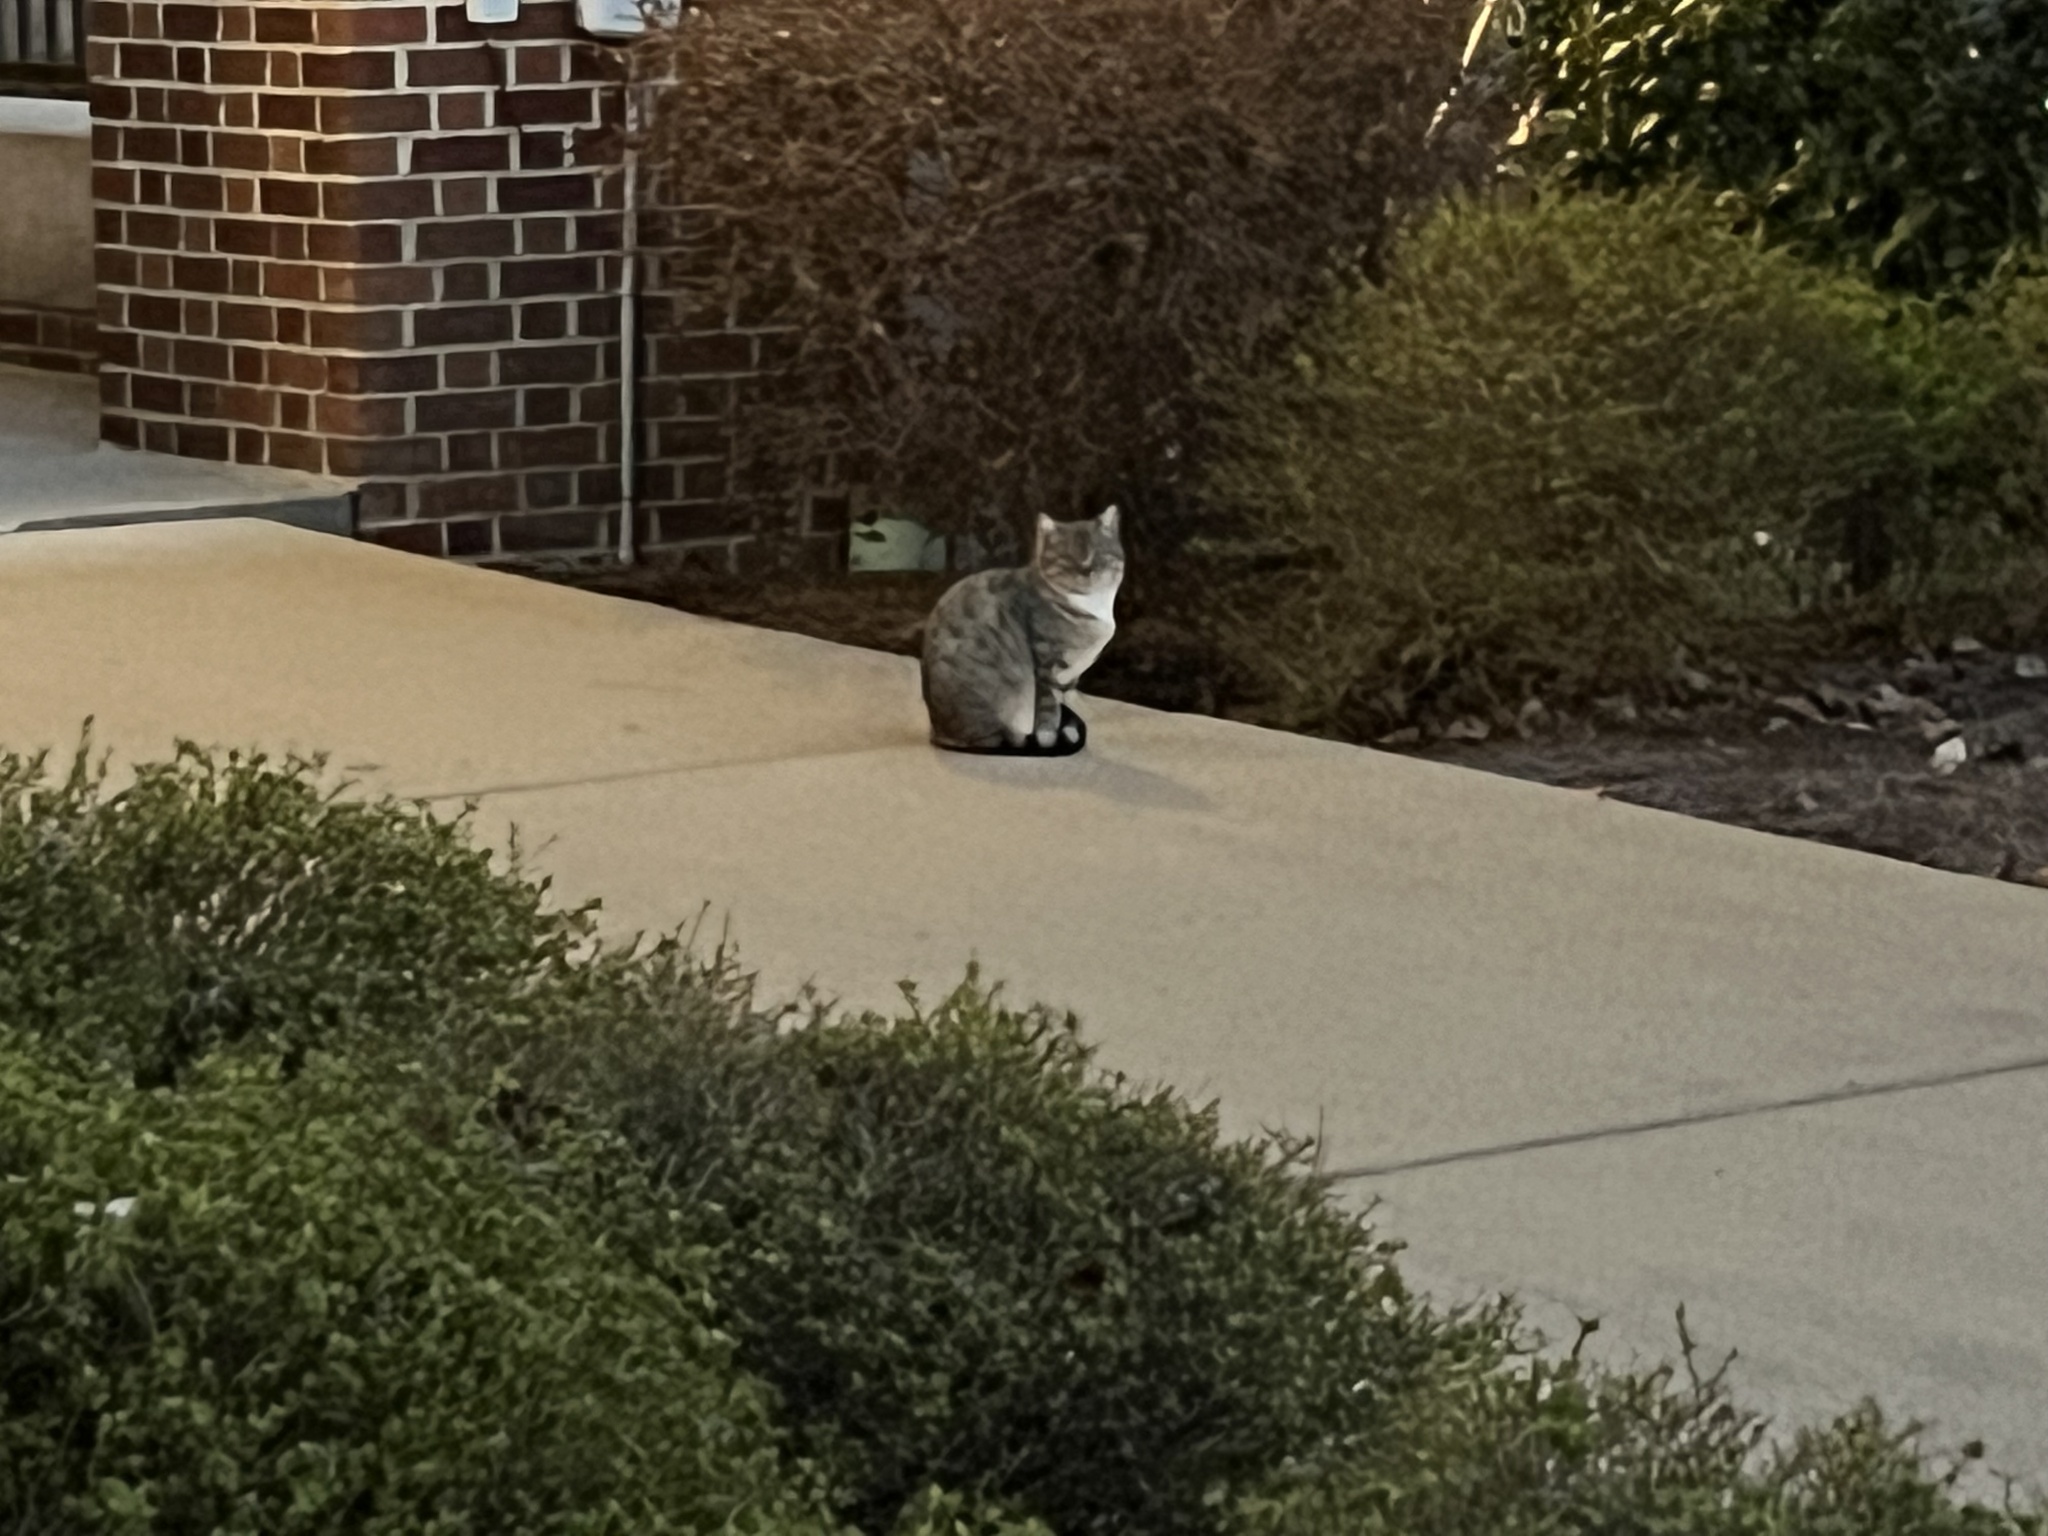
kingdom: Animalia
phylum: Chordata
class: Mammalia
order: Carnivora
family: Felidae
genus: Felis
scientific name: Felis catus
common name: Domestic cat
